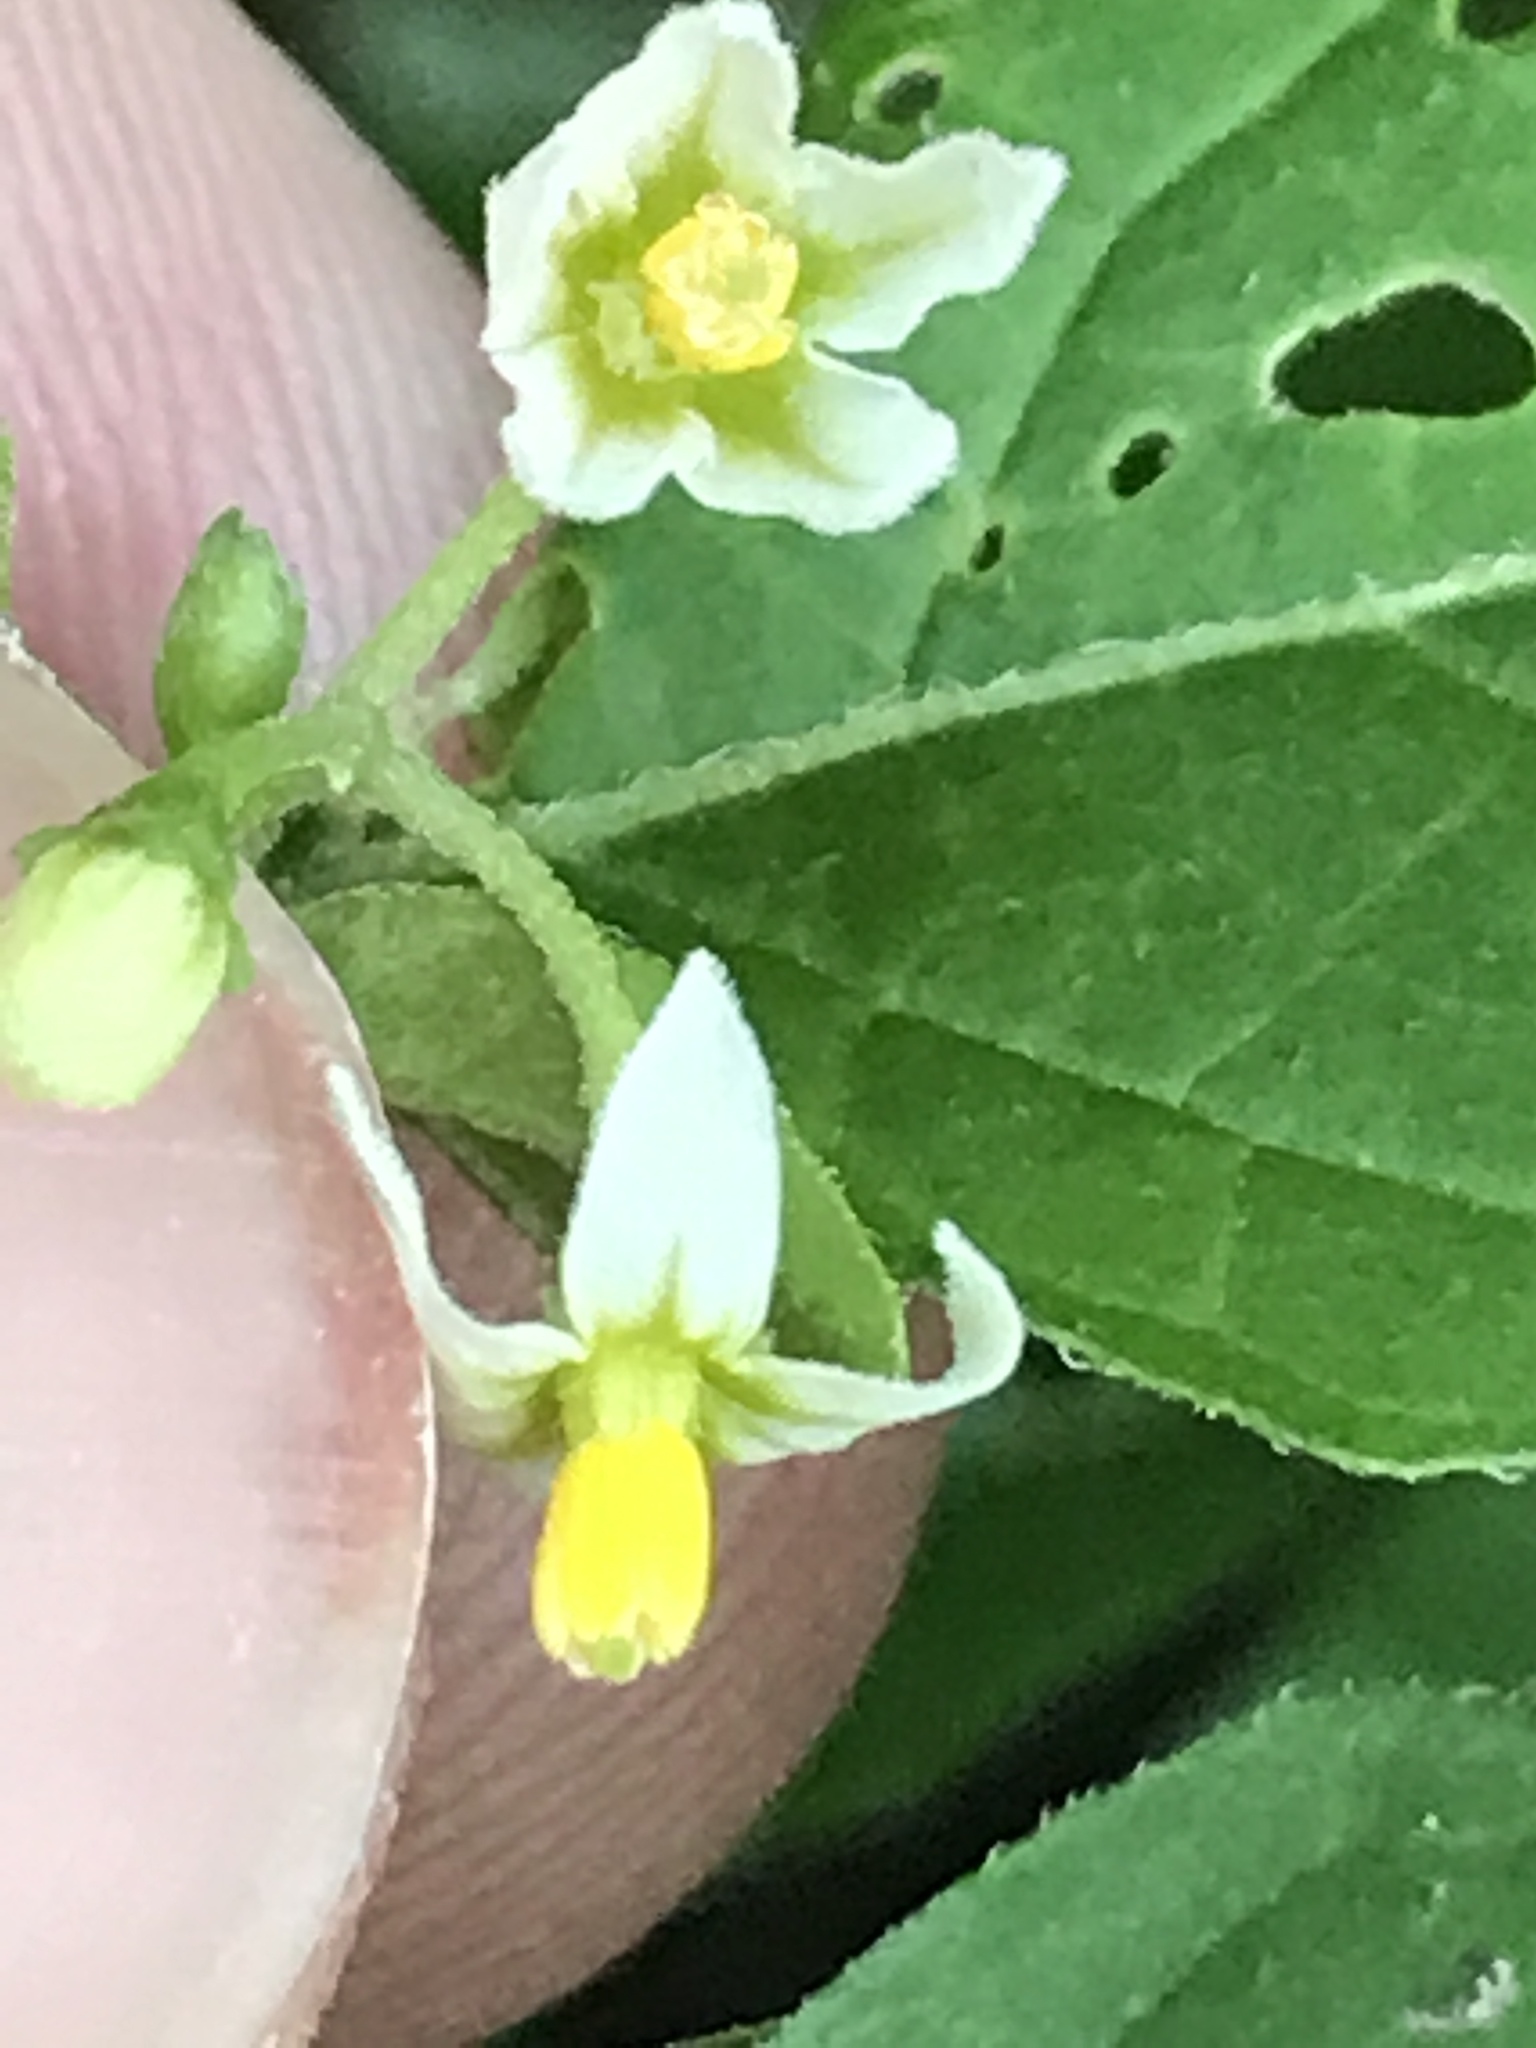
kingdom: Plantae
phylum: Tracheophyta
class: Magnoliopsida
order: Solanales
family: Solanaceae
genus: Solanum
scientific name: Solanum emulans
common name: Eastern black nightshade
